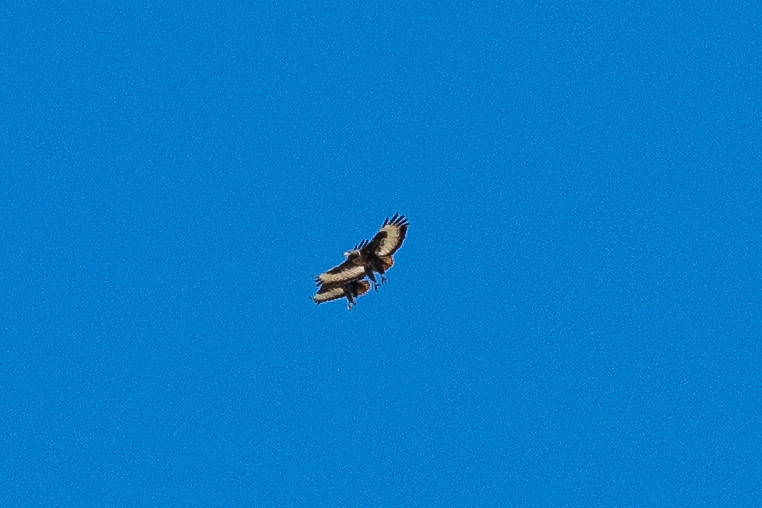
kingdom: Animalia
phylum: Chordata
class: Aves
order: Accipitriformes
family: Accipitridae
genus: Buteo
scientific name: Buteo rufofuscus
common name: Jackal buzzard
